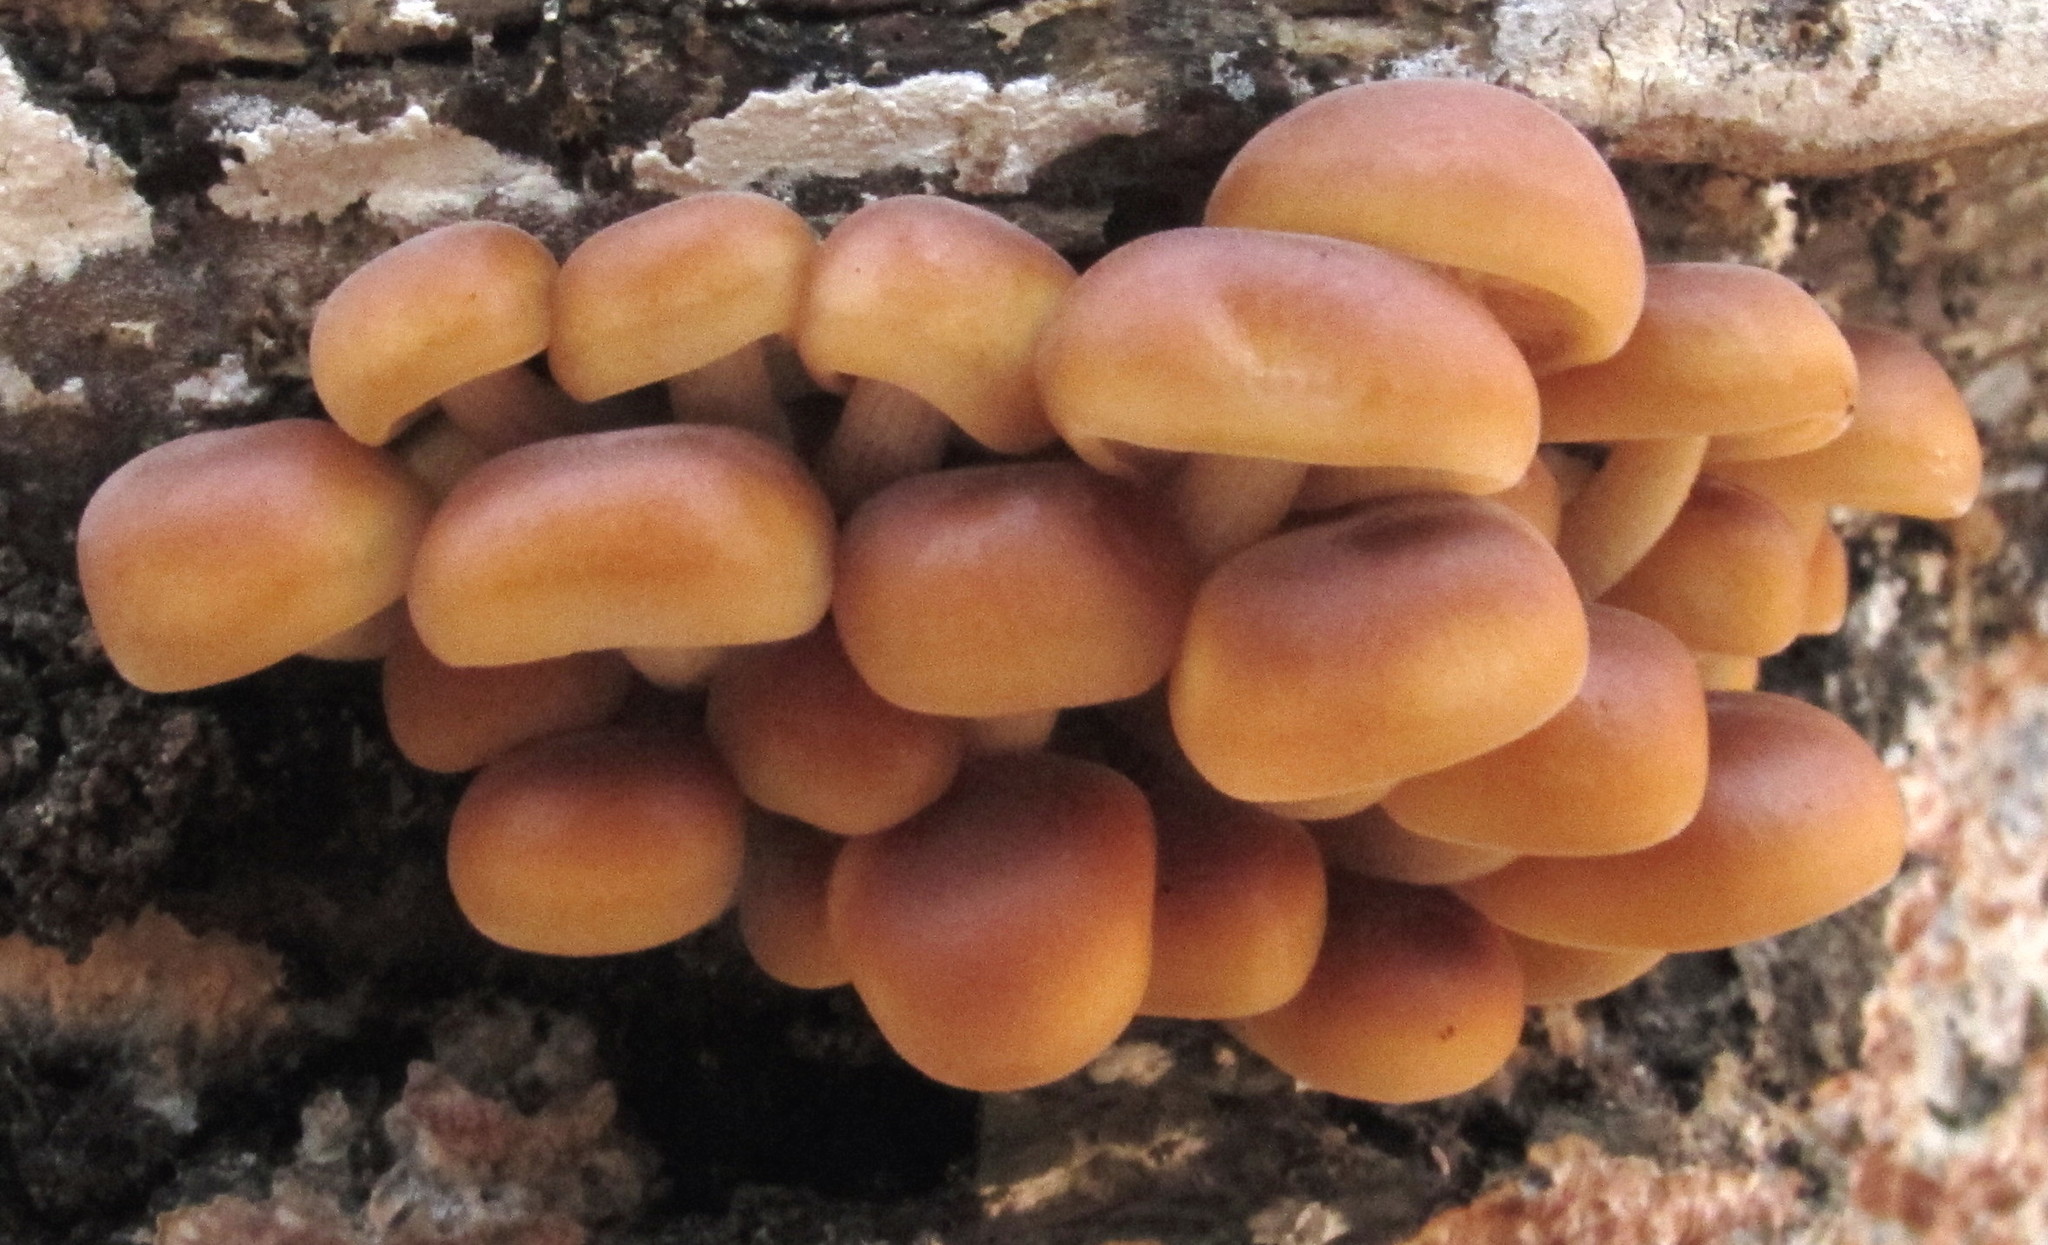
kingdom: Fungi
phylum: Basidiomycota
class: Agaricomycetes
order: Agaricales
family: Physalacriaceae
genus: Flammulina
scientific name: Flammulina velutipes
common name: Velvet shank
